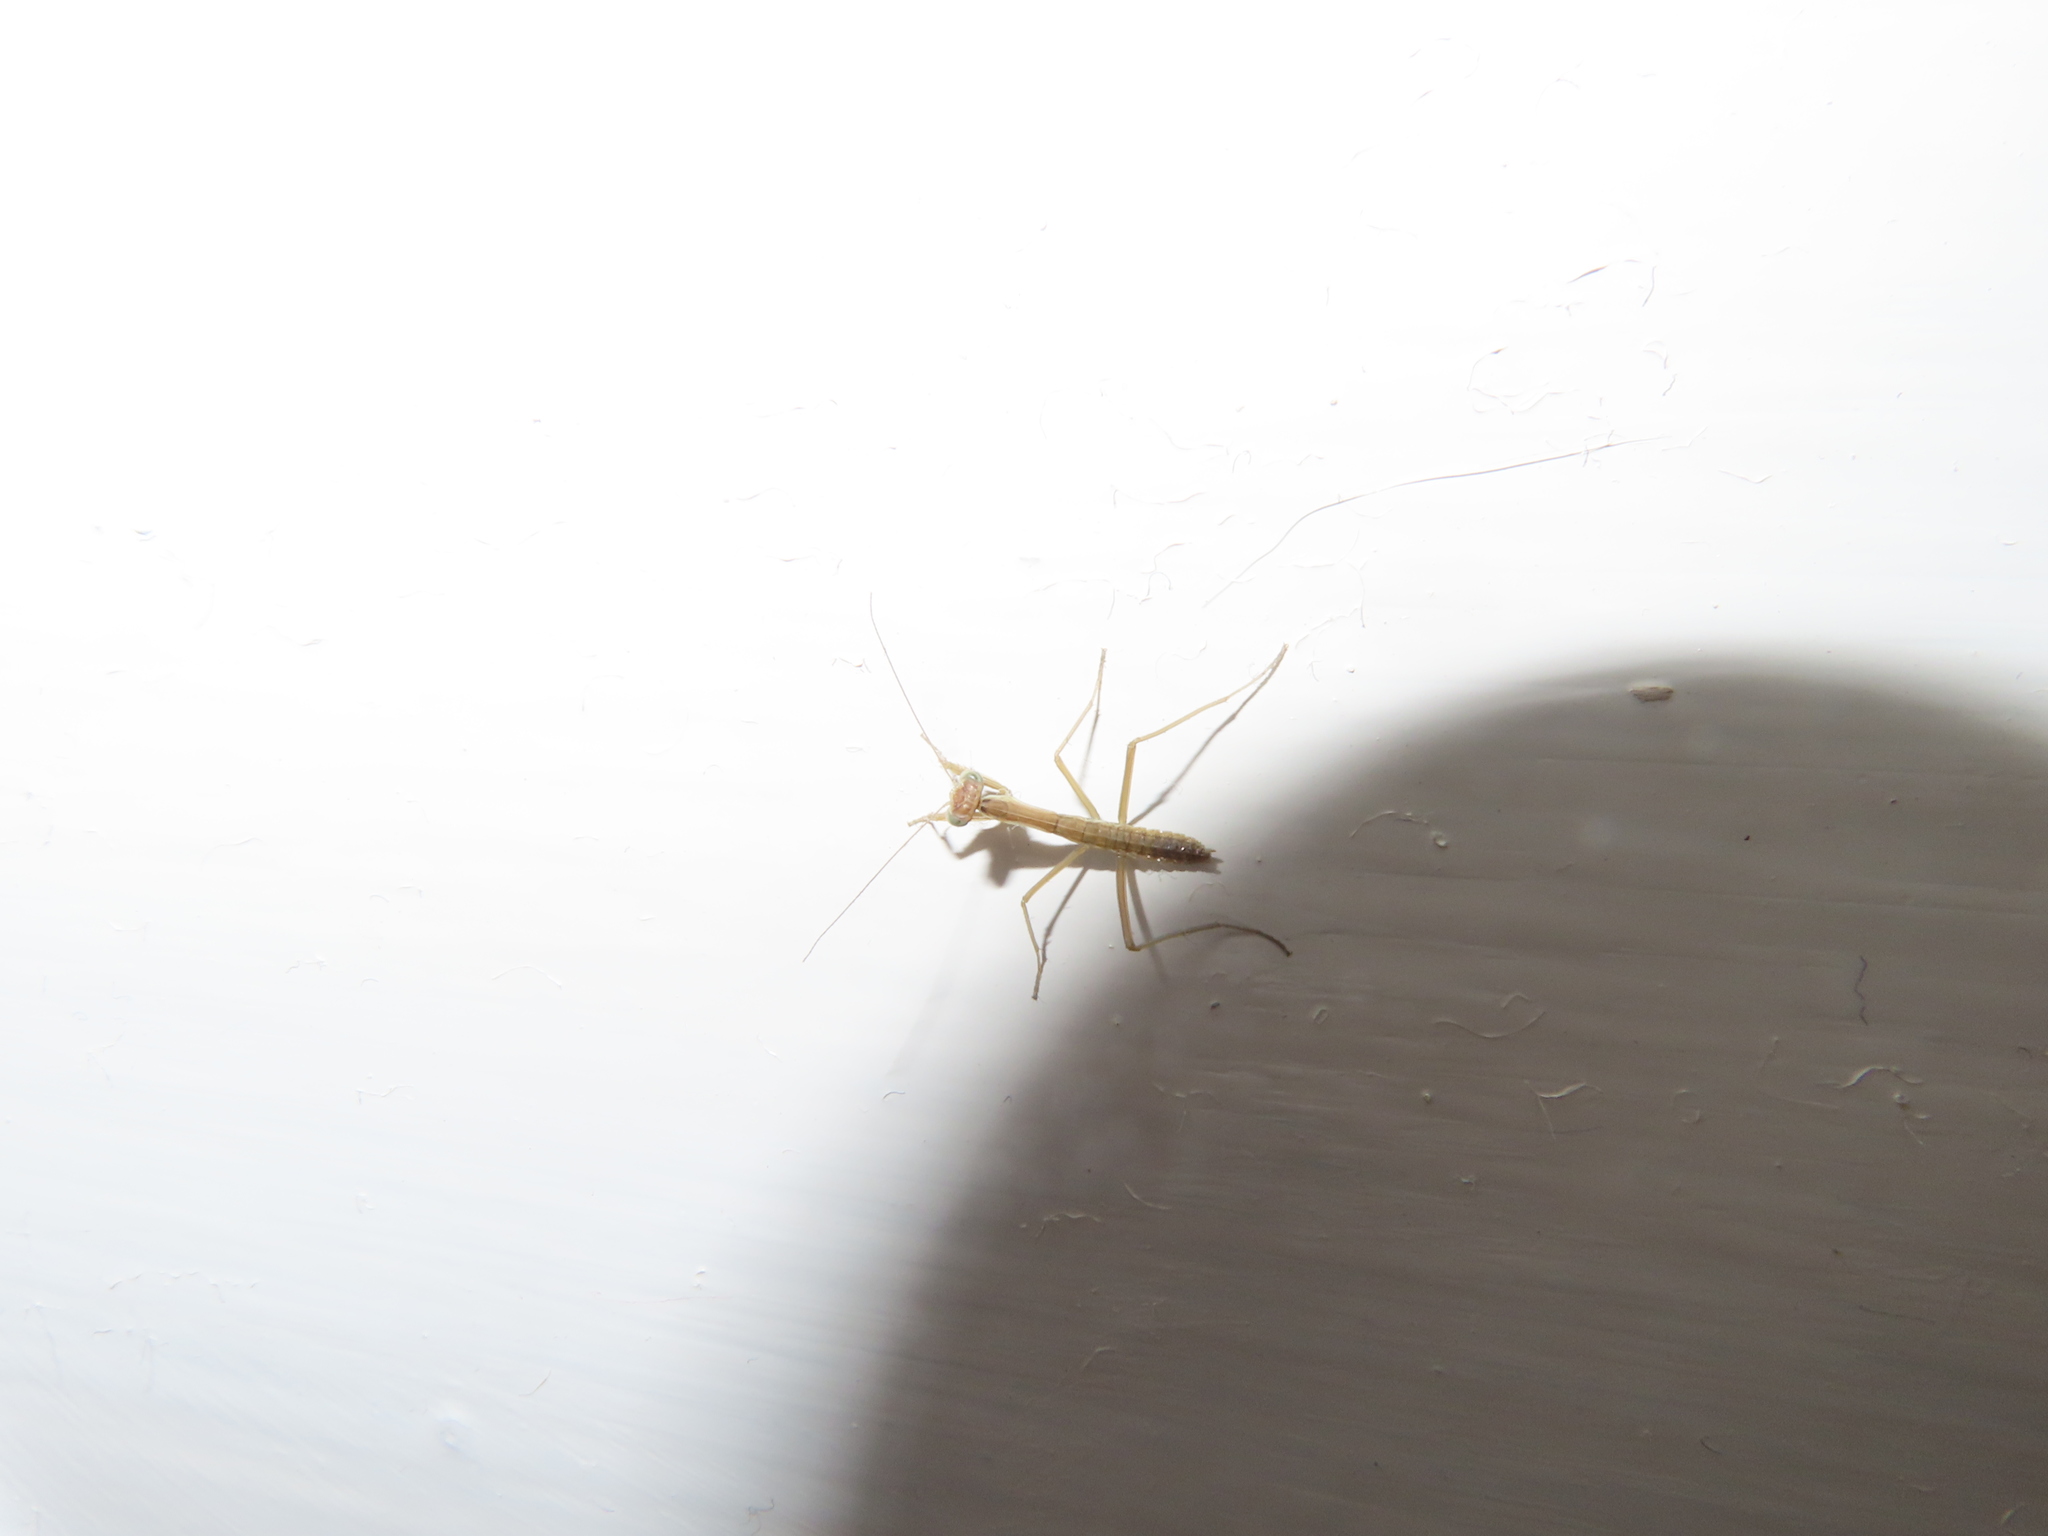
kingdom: Animalia
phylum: Arthropoda
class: Insecta
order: Mantodea
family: Mantidae
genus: Tenodera
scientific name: Tenodera sinensis
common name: Chinese mantis
